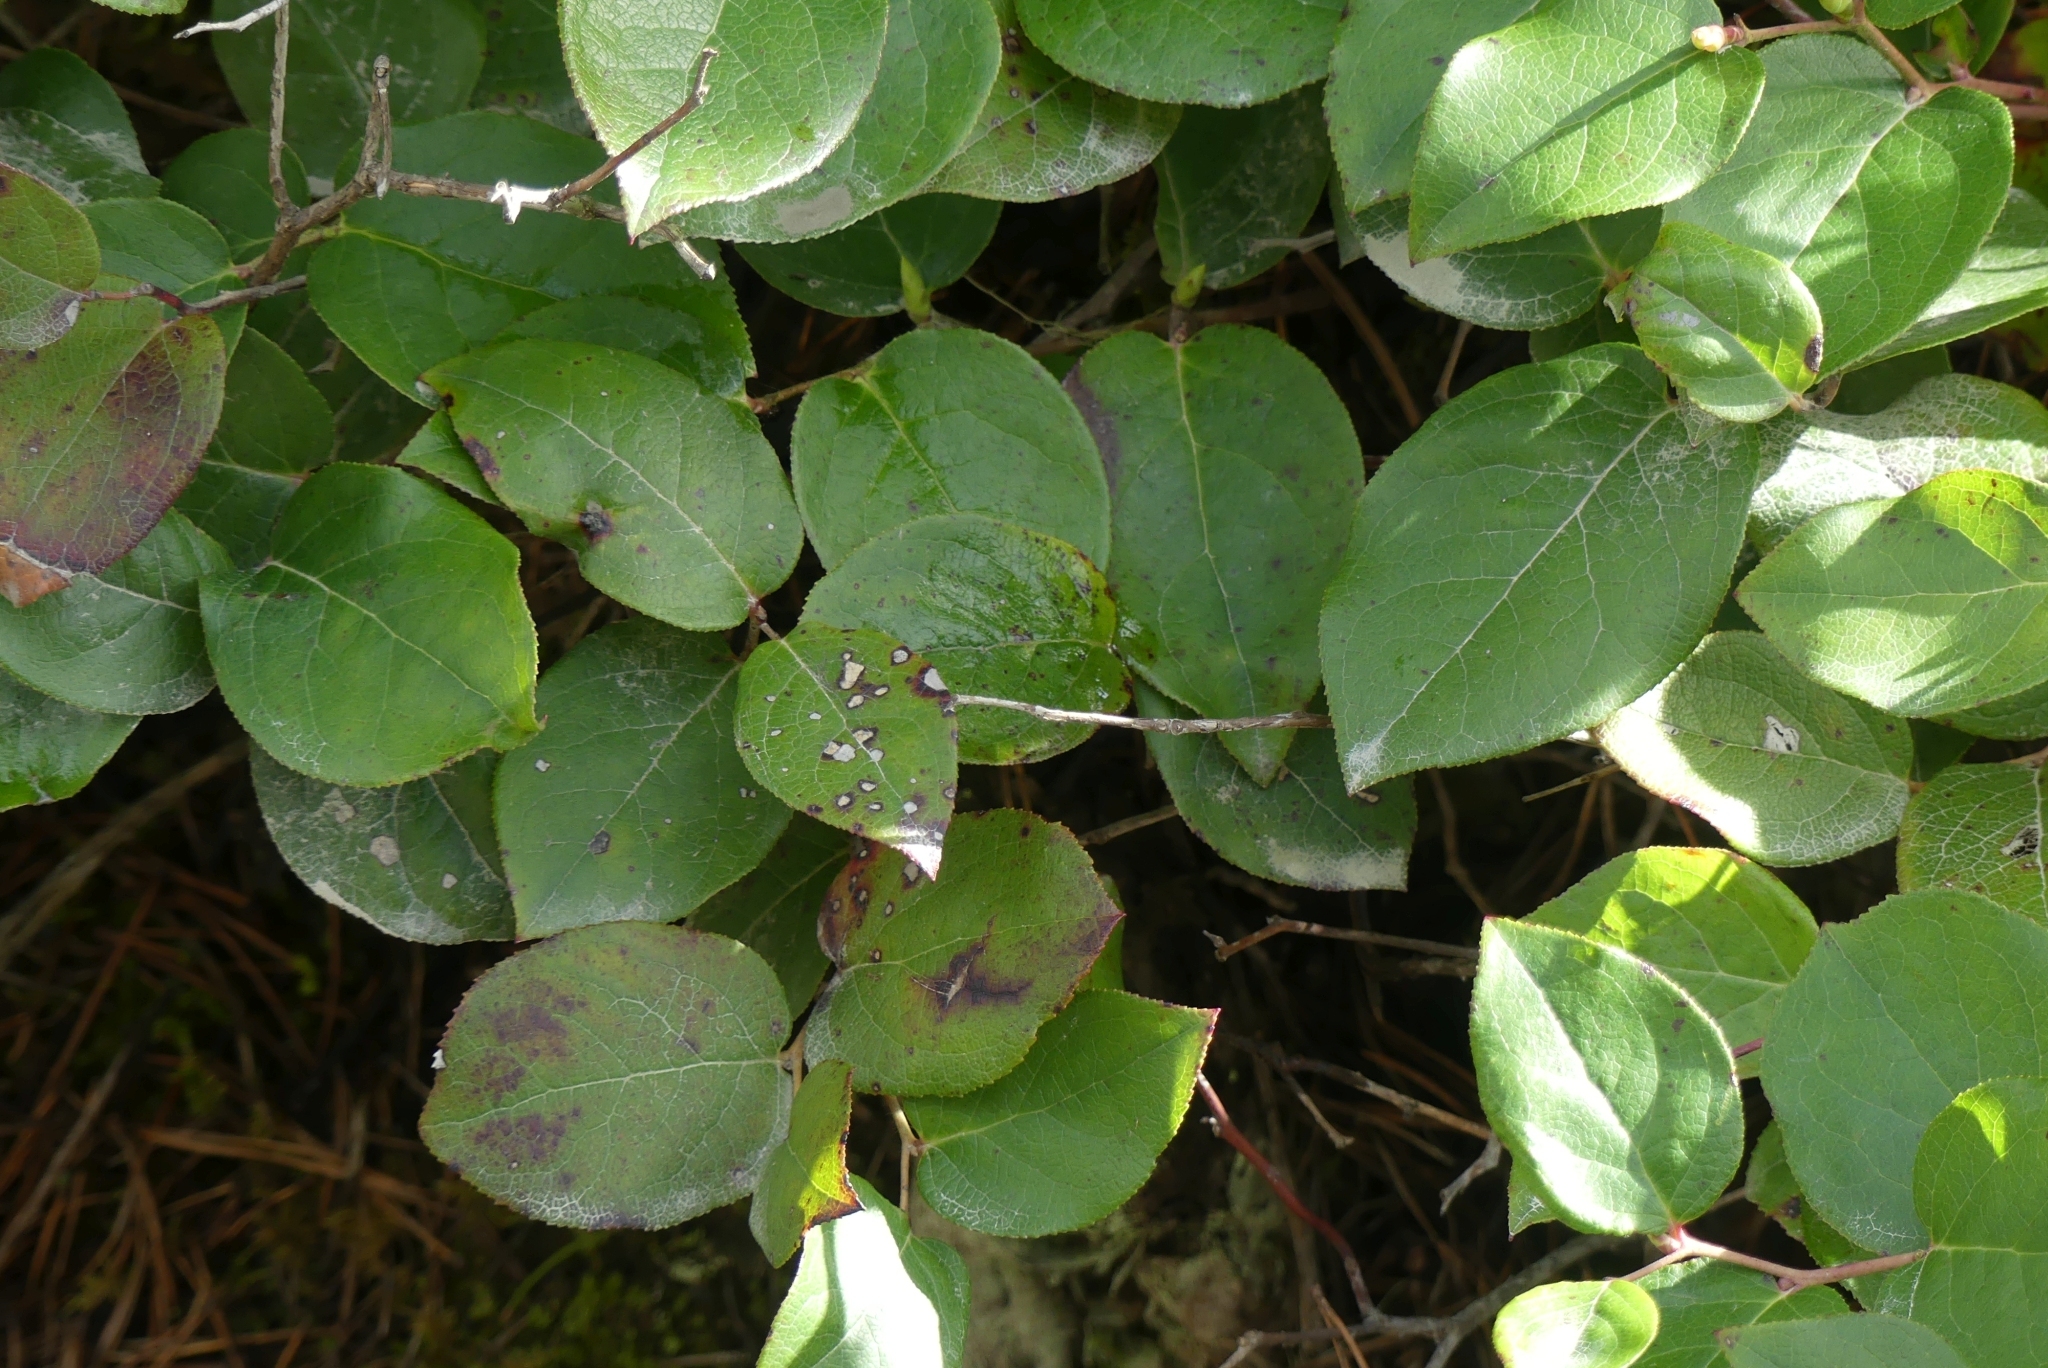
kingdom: Plantae
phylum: Tracheophyta
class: Magnoliopsida
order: Ericales
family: Ericaceae
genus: Gaultheria
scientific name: Gaultheria shallon
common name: Shallon
